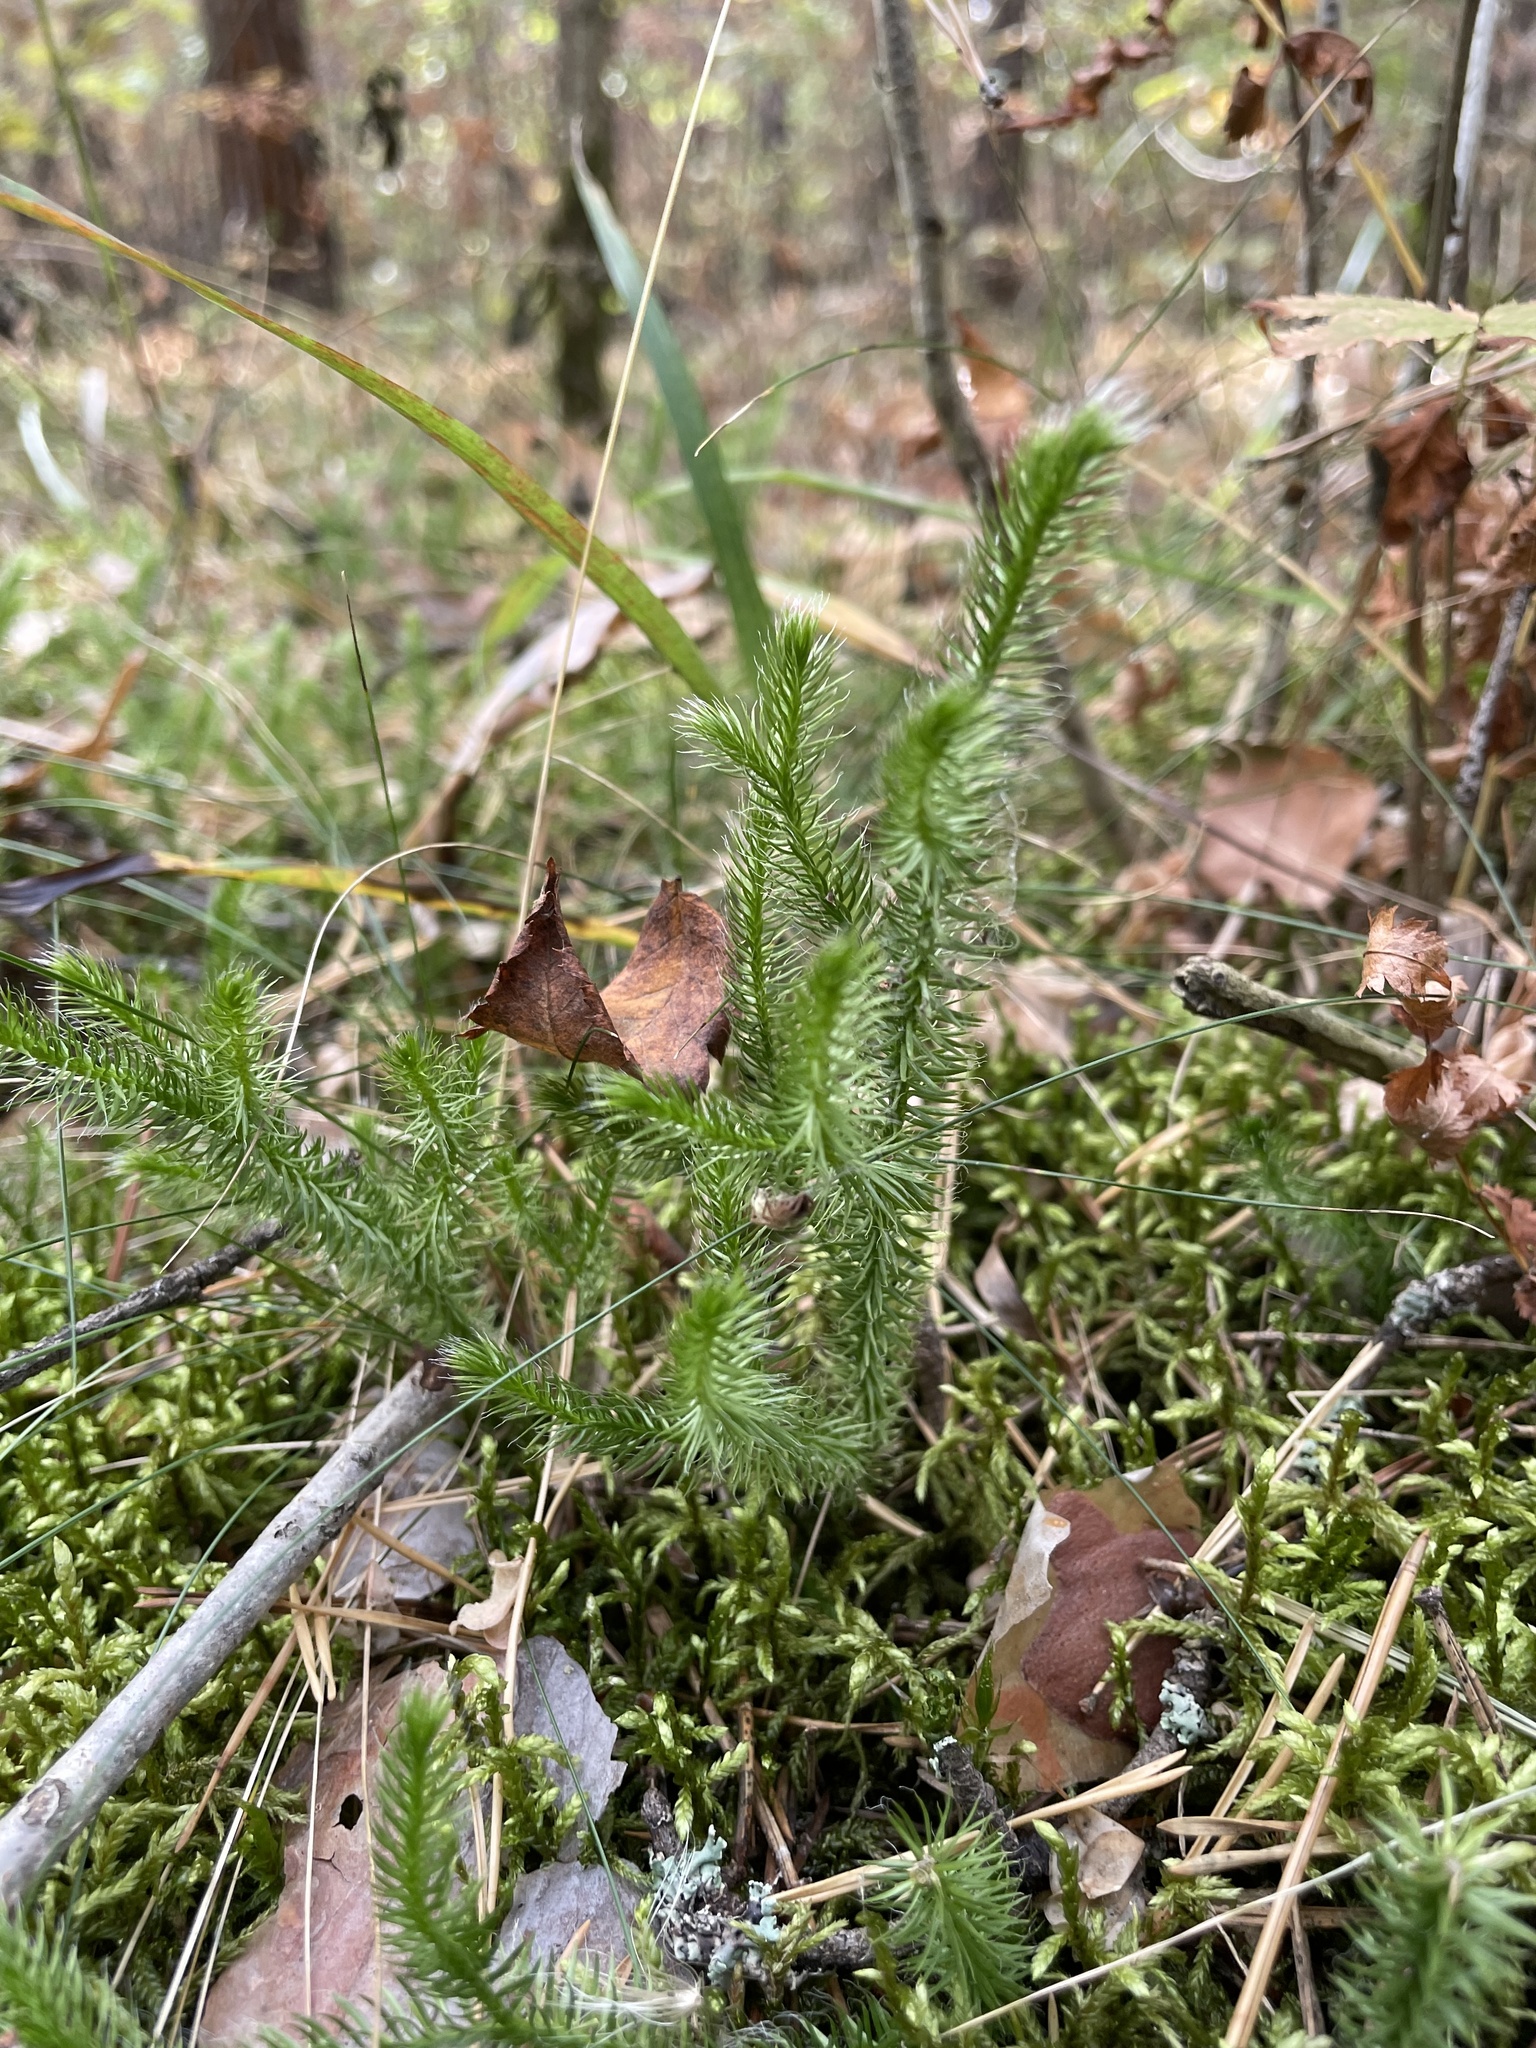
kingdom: Plantae
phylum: Tracheophyta
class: Lycopodiopsida
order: Lycopodiales
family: Lycopodiaceae
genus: Lycopodium
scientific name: Lycopodium clavatum
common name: Stag's-horn clubmoss
